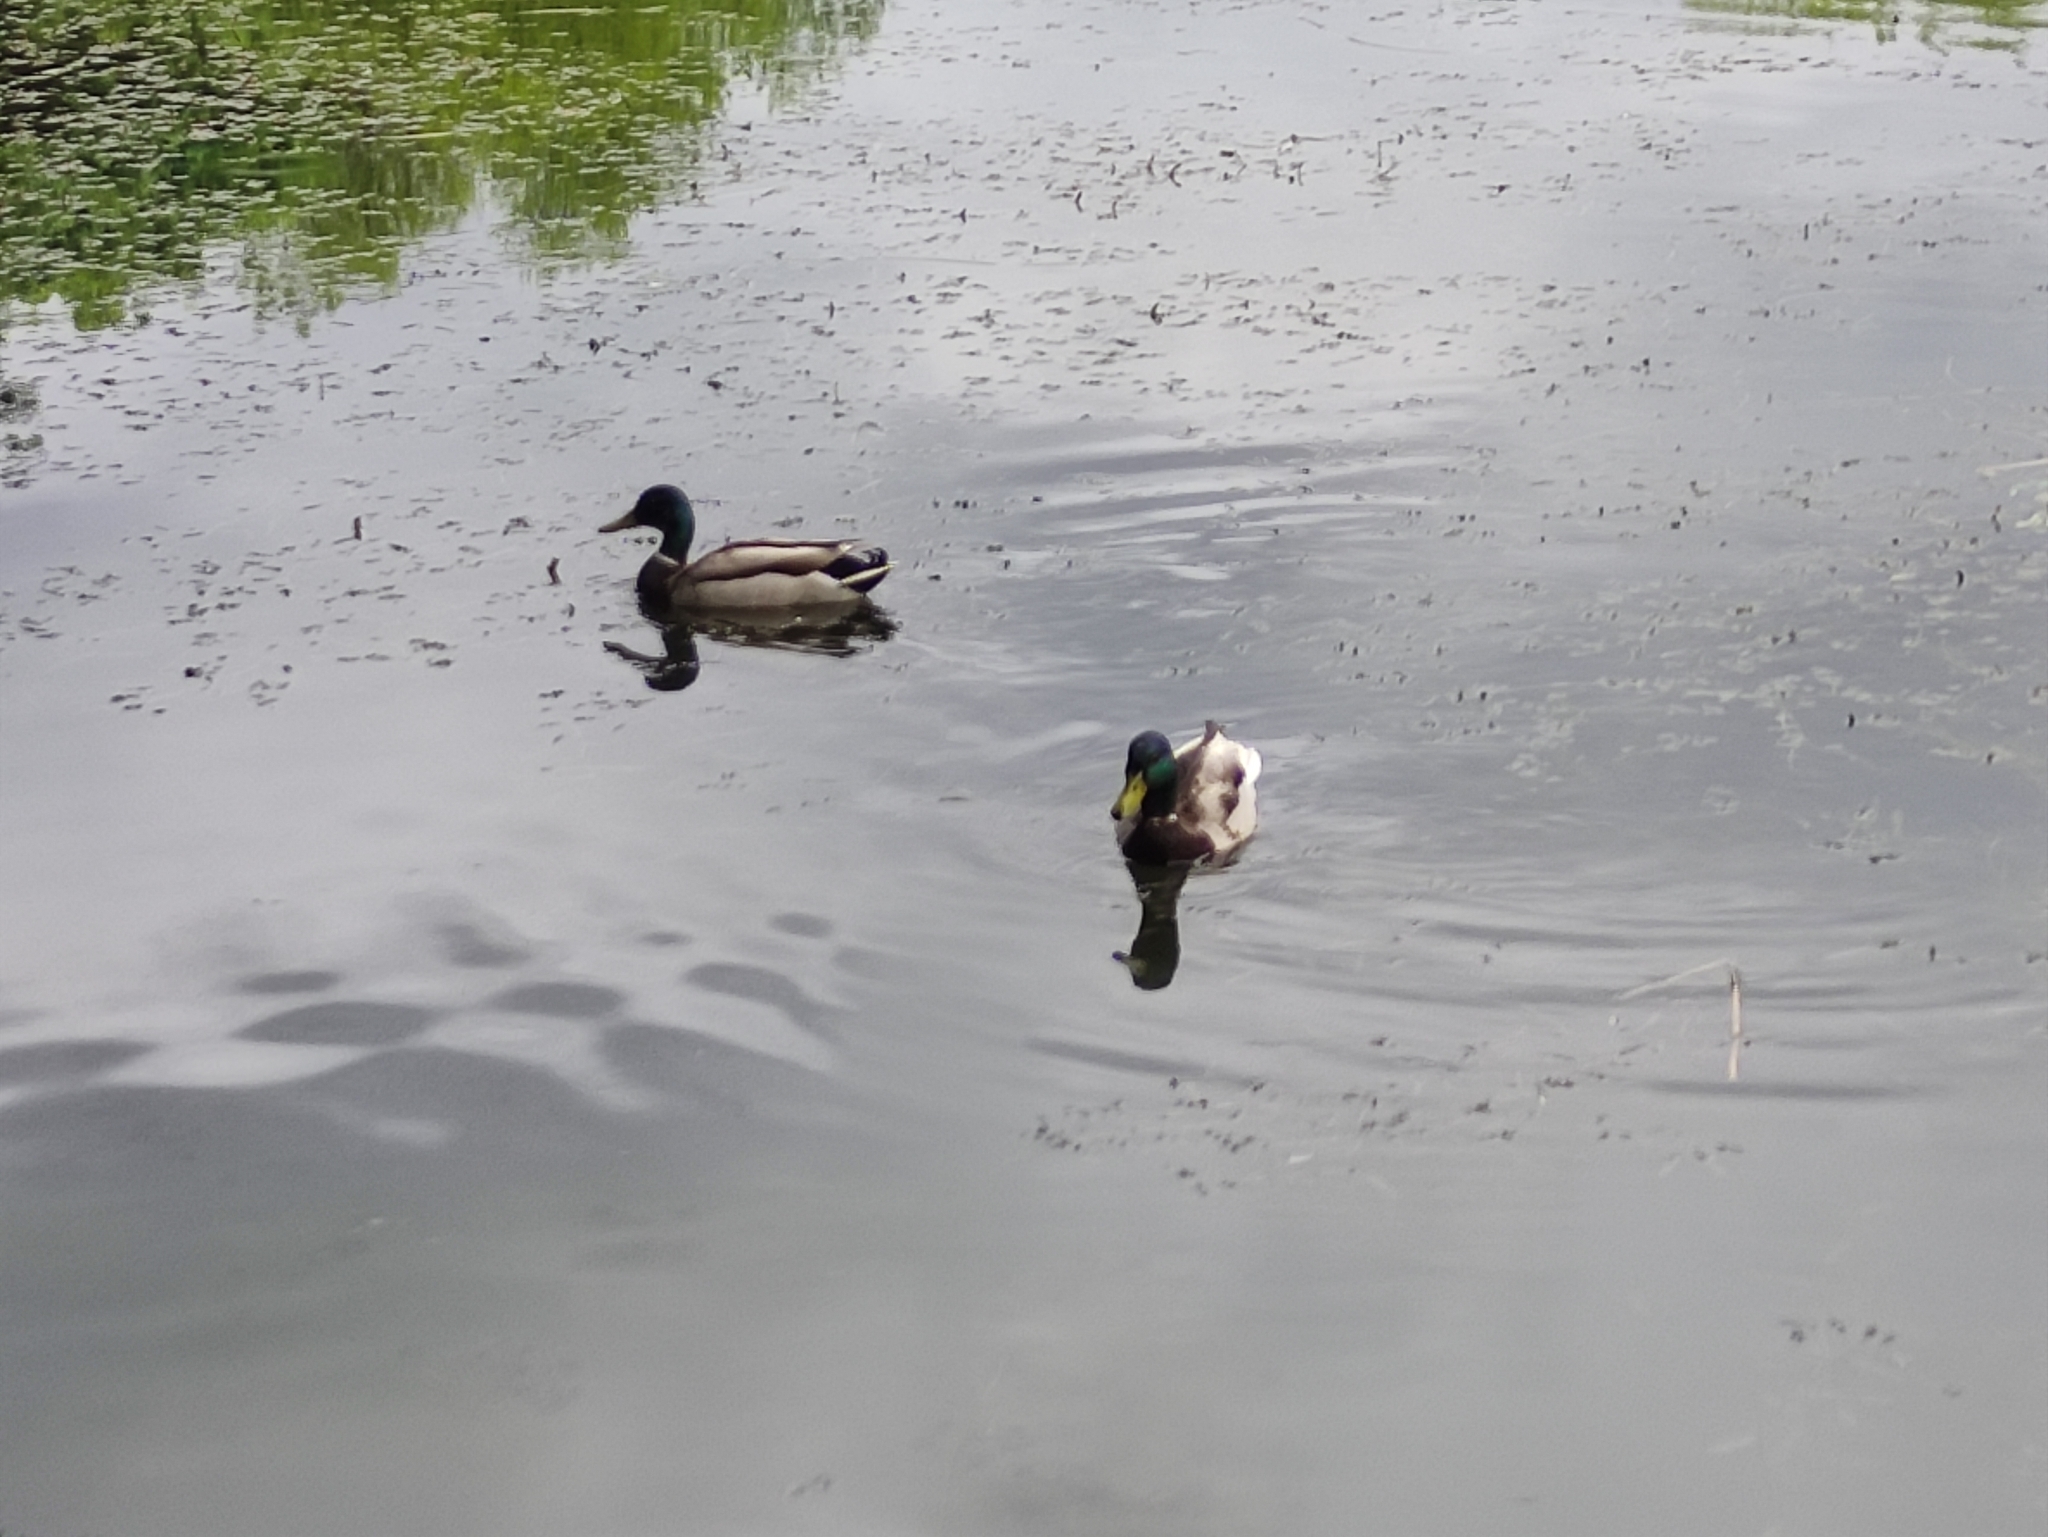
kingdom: Animalia
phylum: Chordata
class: Aves
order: Anseriformes
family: Anatidae
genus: Anas
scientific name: Anas platyrhynchos
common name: Mallard
